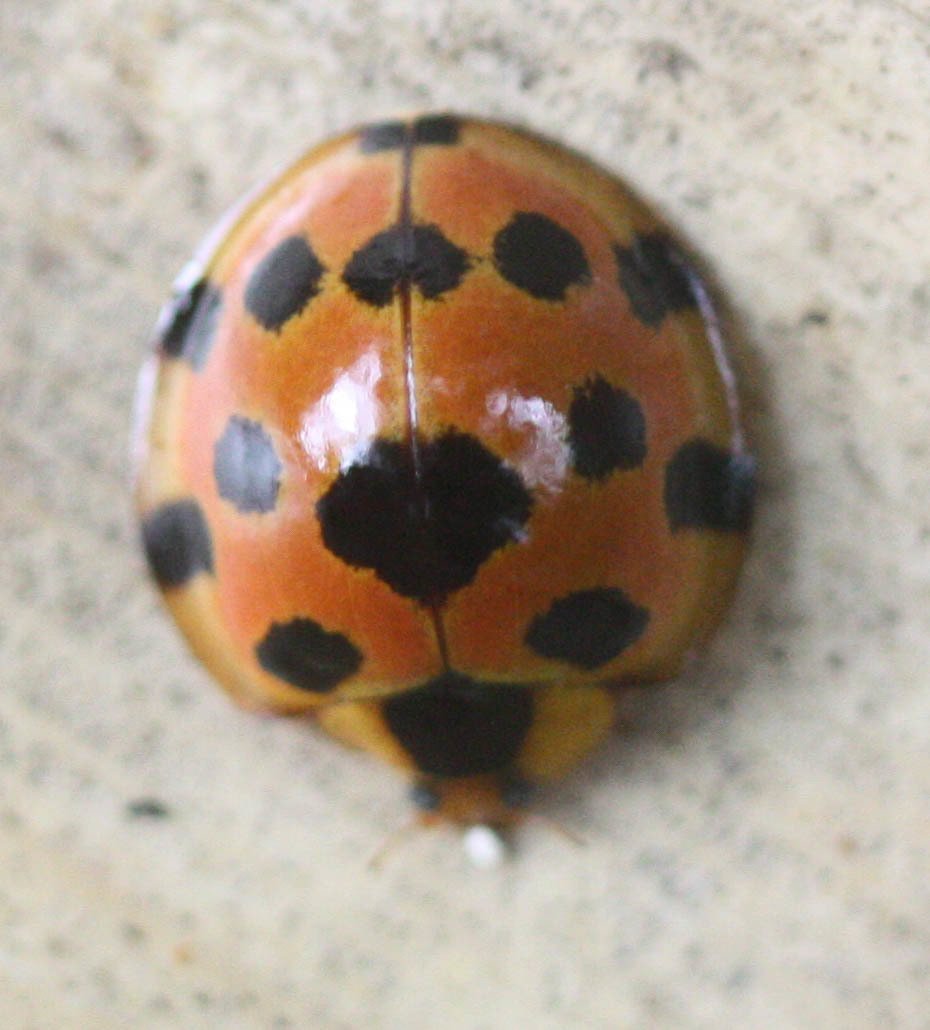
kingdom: Animalia
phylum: Arthropoda
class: Insecta
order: Coleoptera
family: Coccinellidae
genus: Synonycha
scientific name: Synonycha grandis
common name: Lady beetle
